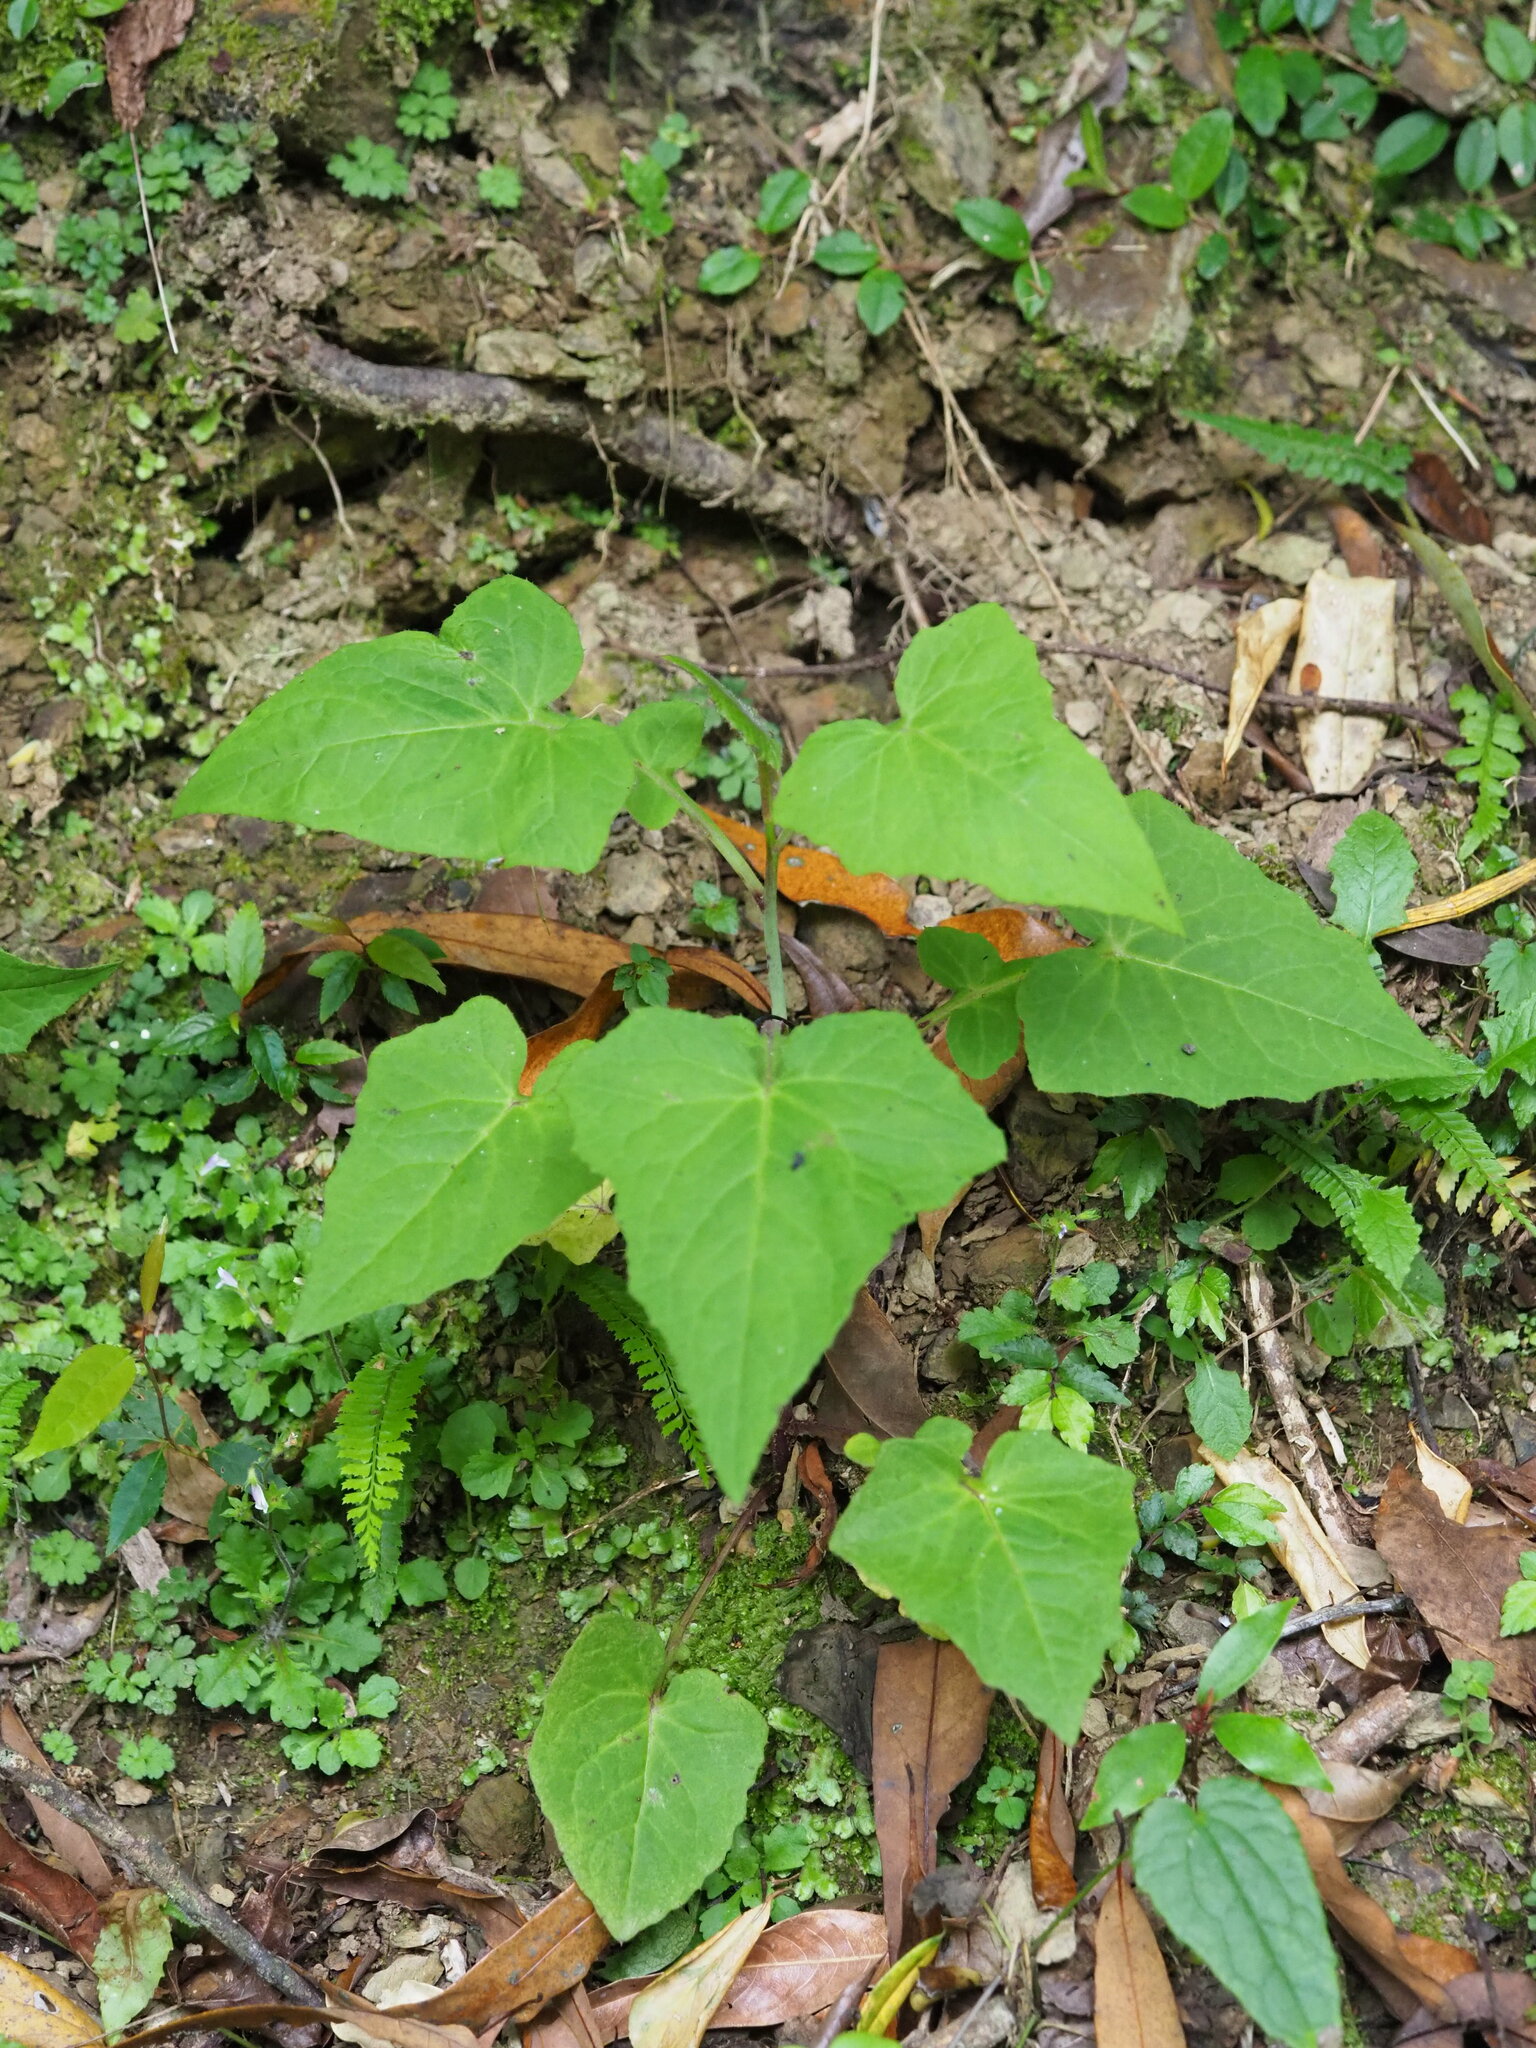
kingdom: Plantae
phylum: Tracheophyta
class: Magnoliopsida
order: Asterales
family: Asteraceae
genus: Paraprenanthes
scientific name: Paraprenanthes sororia
